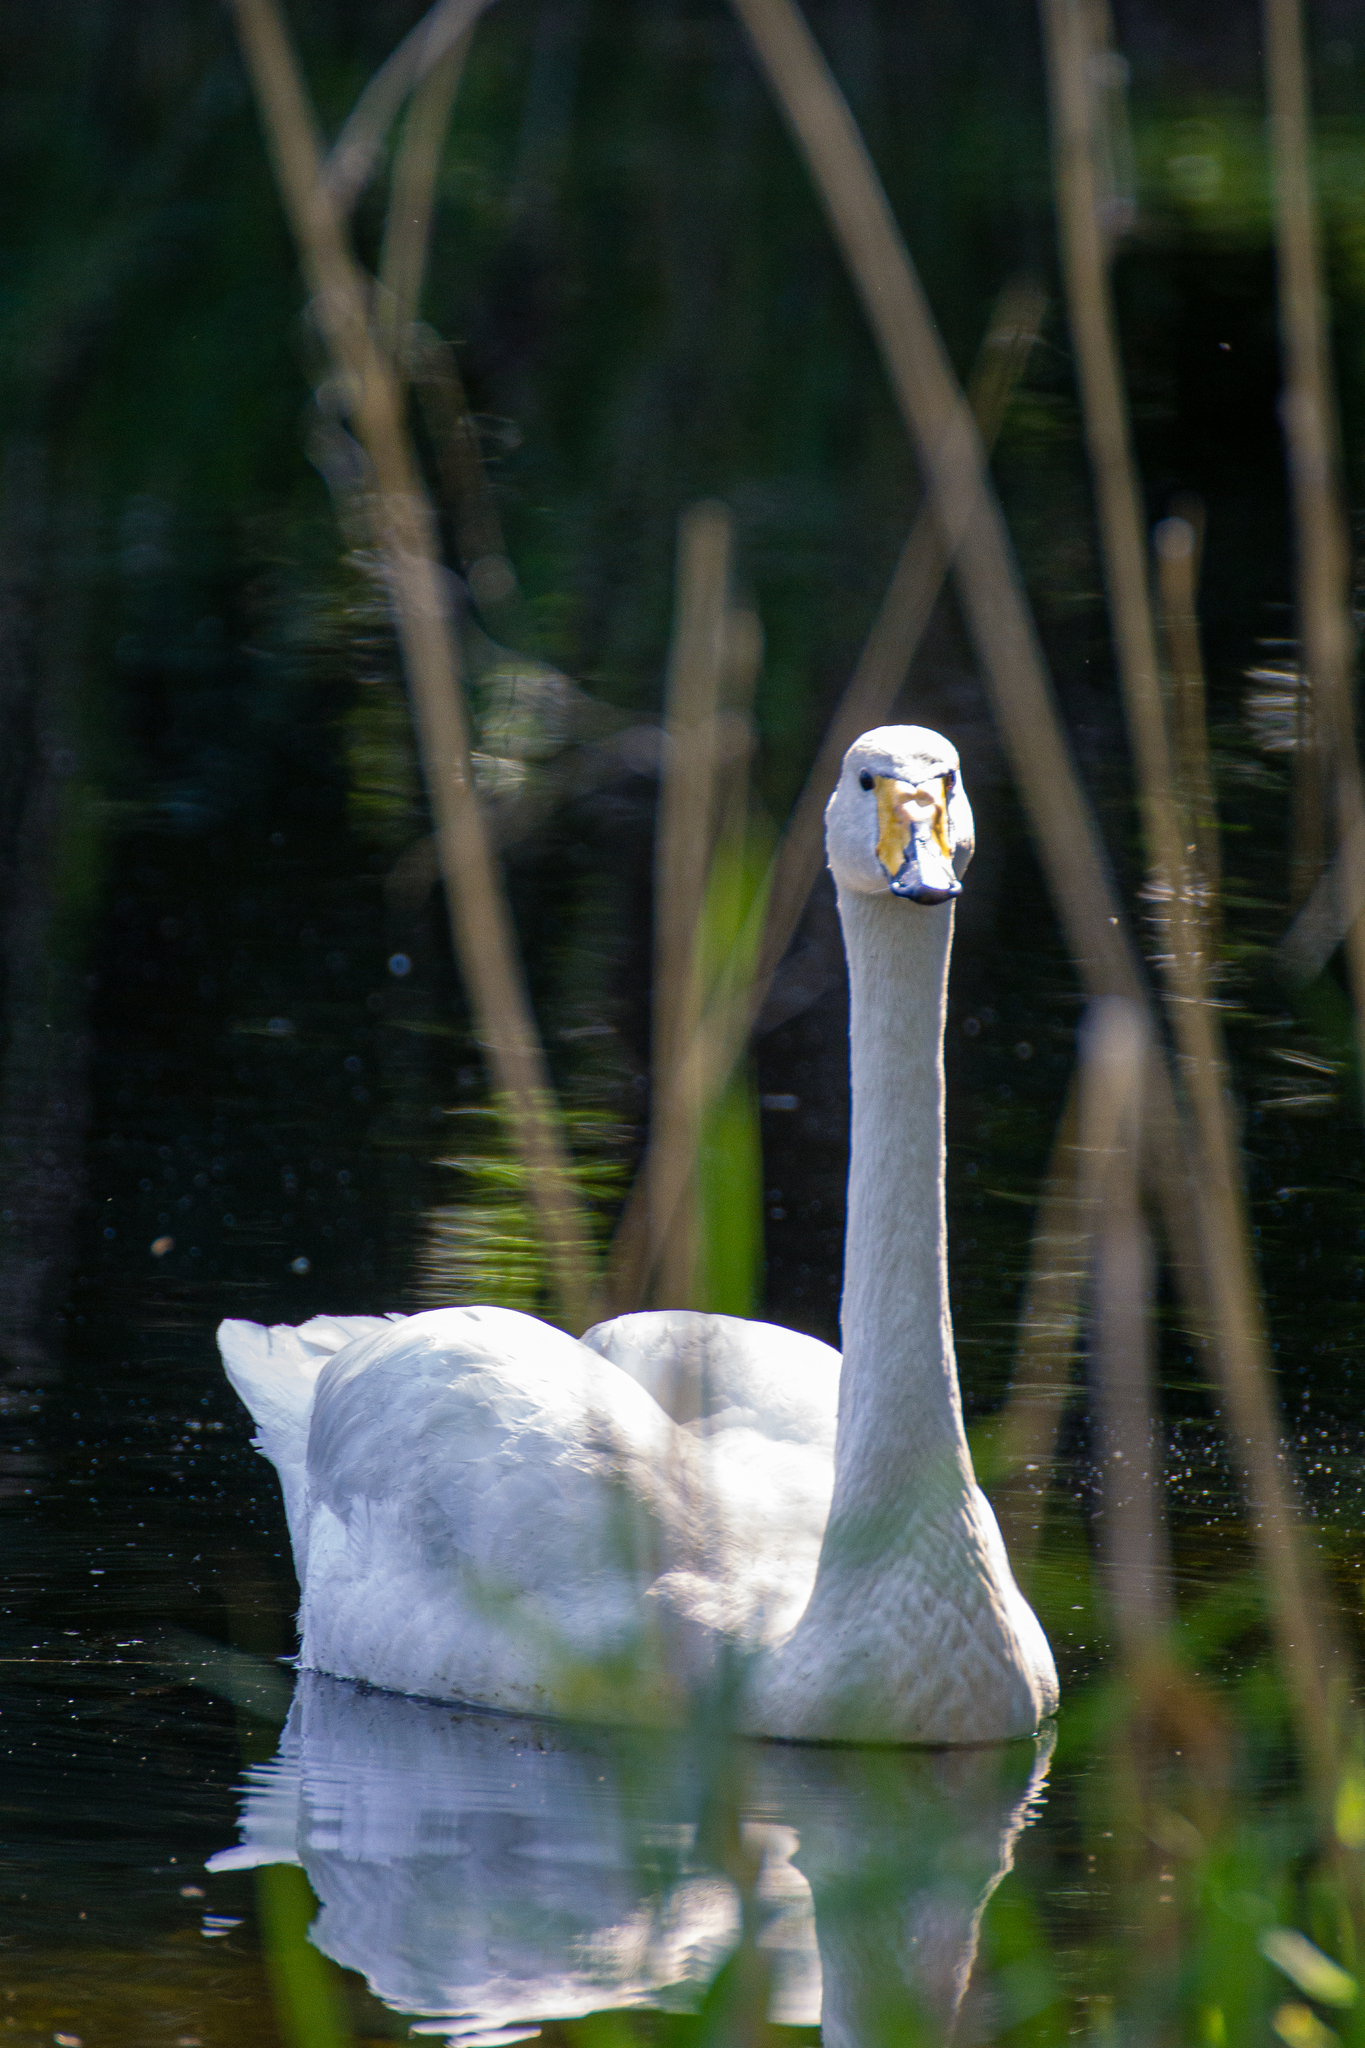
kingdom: Animalia
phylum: Chordata
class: Aves
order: Anseriformes
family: Anatidae
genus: Cygnus
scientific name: Cygnus cygnus
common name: Whooper swan
